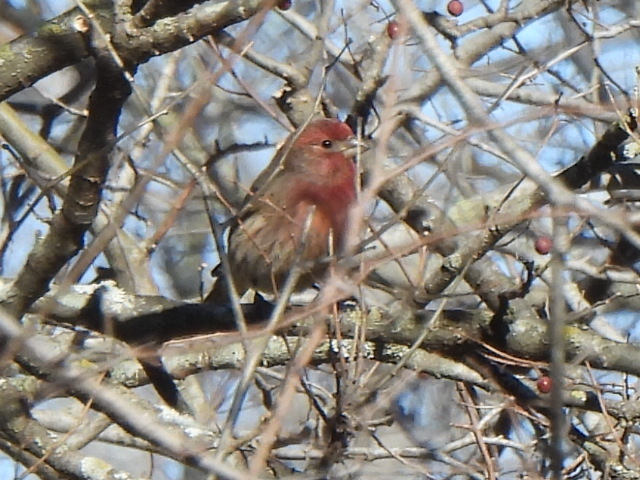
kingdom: Animalia
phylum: Chordata
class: Aves
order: Passeriformes
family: Fringillidae
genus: Haemorhous
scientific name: Haemorhous mexicanus
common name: House finch
